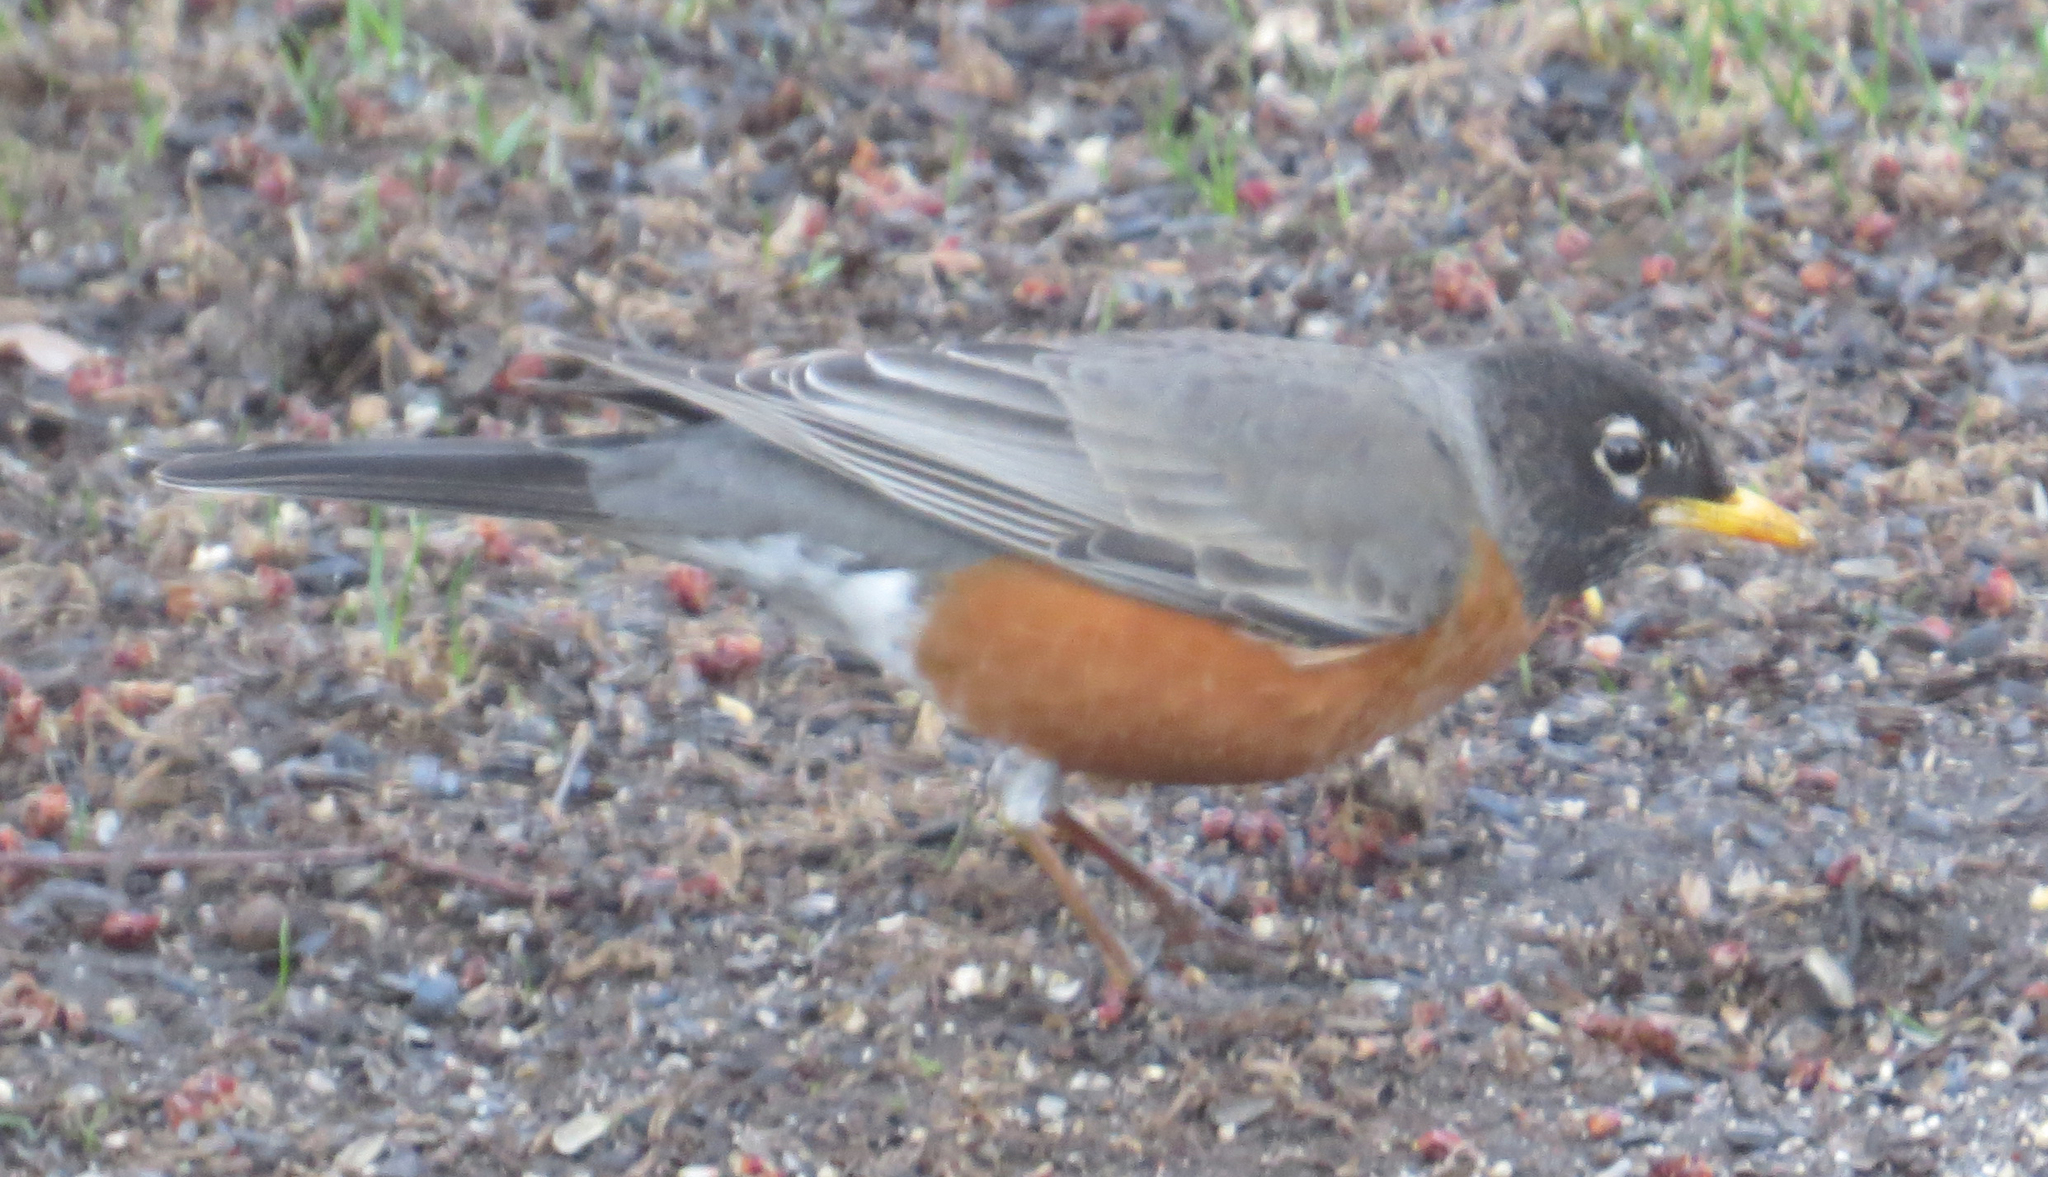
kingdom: Animalia
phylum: Chordata
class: Aves
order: Passeriformes
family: Turdidae
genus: Turdus
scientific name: Turdus migratorius
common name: American robin
